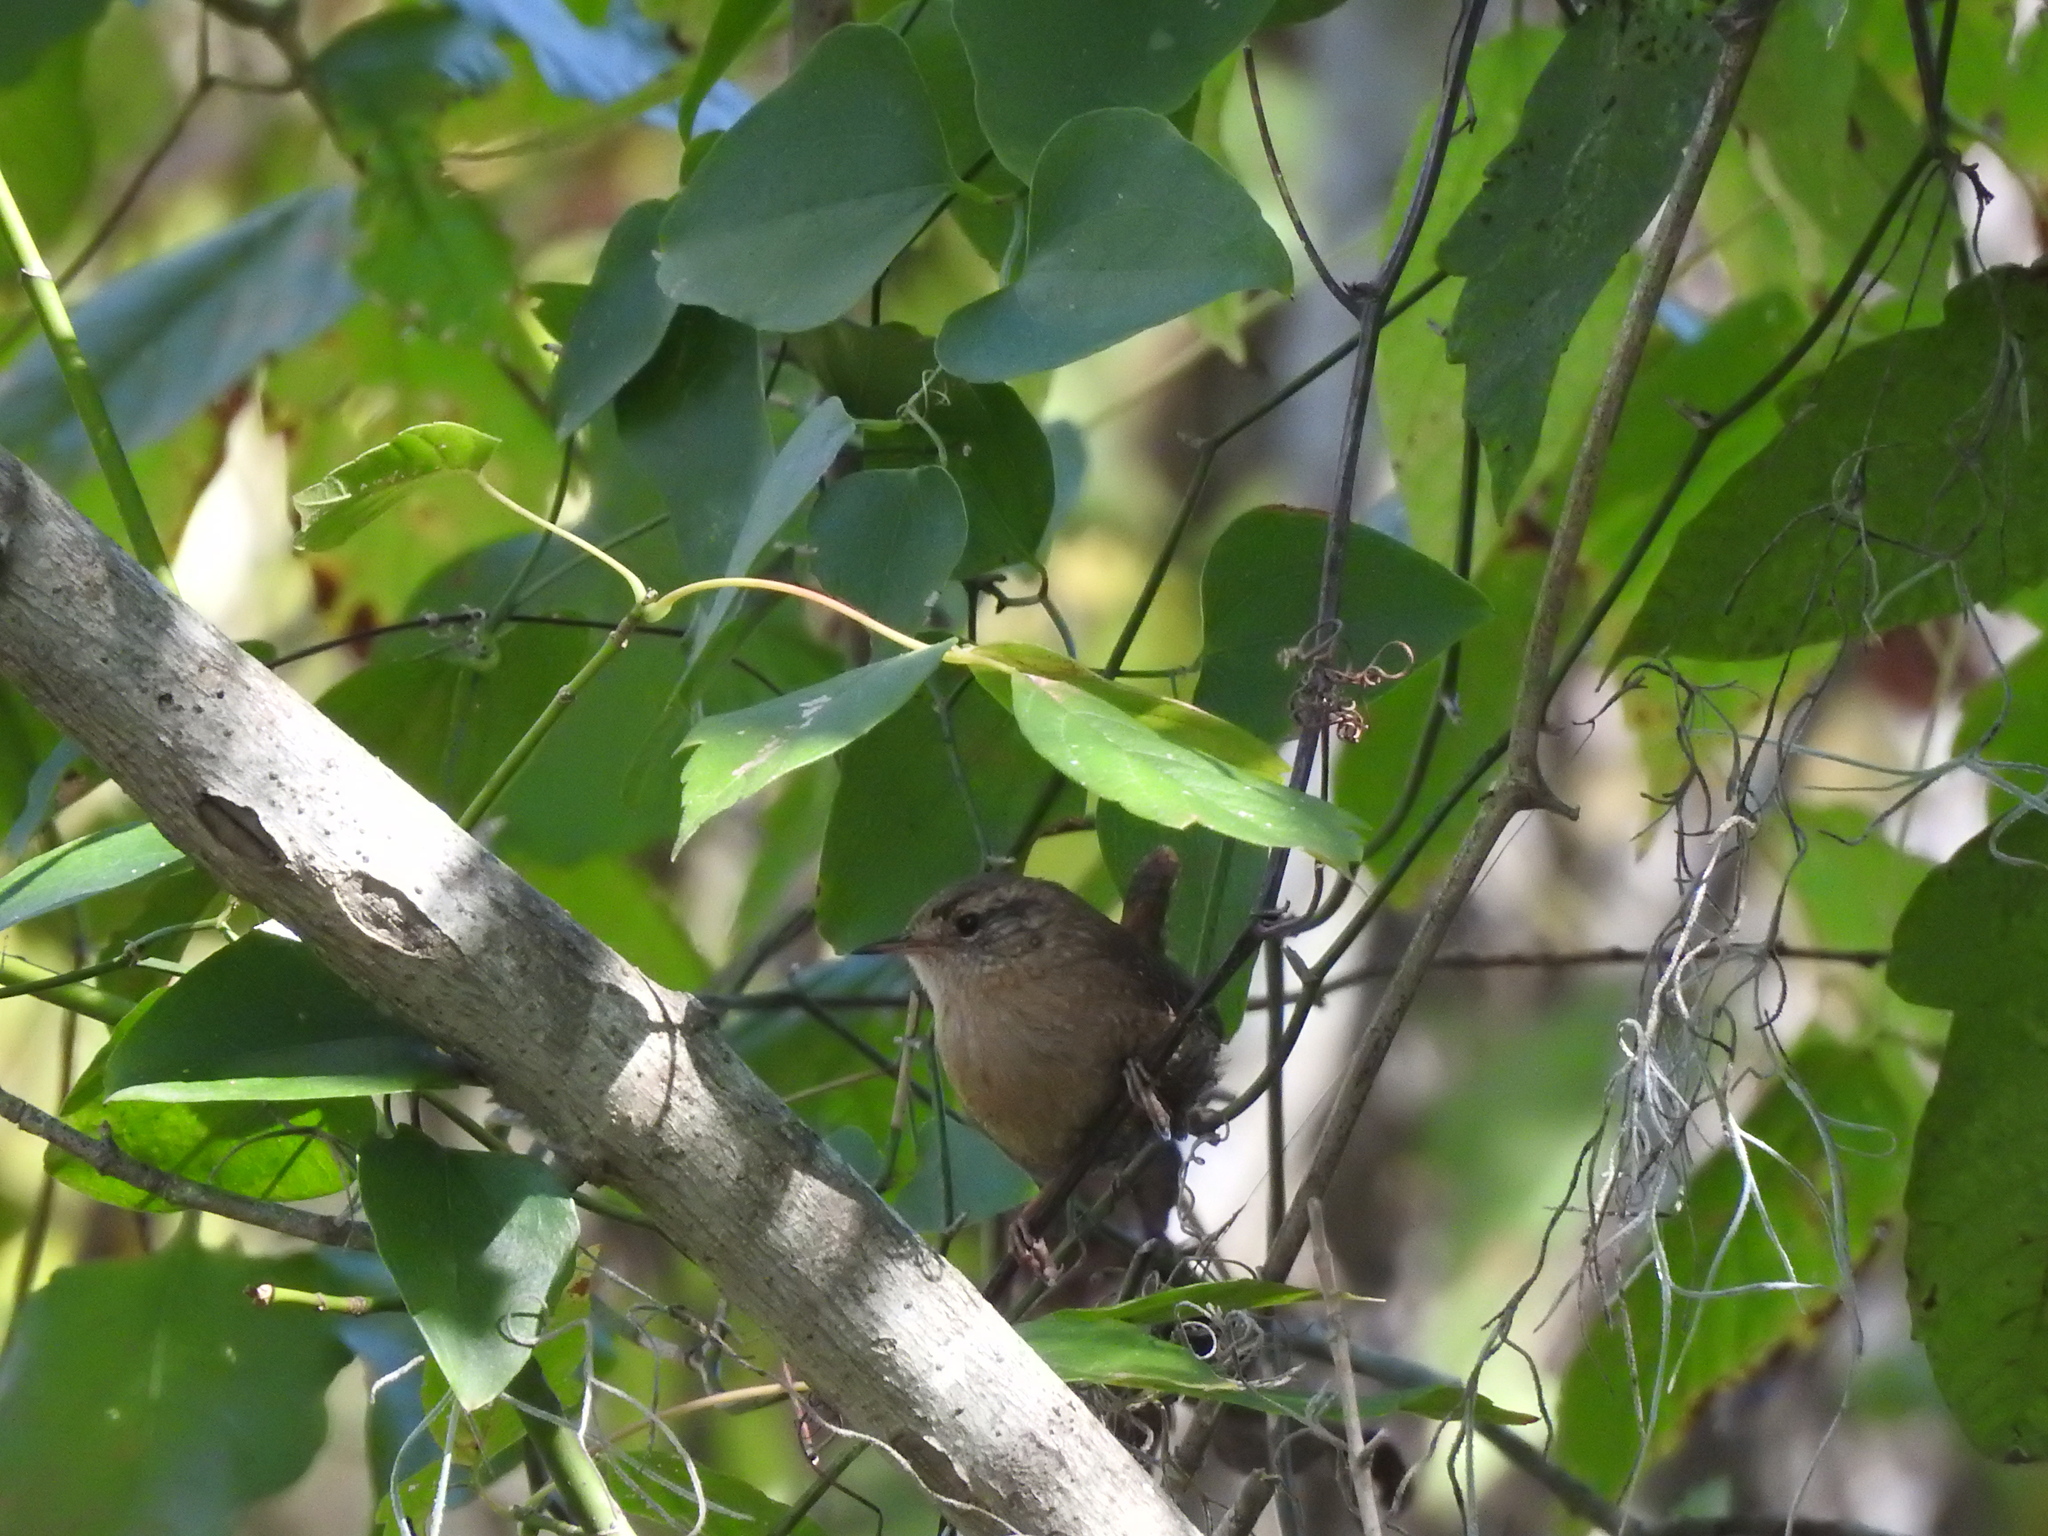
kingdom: Animalia
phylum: Chordata
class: Aves
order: Passeriformes
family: Troglodytidae
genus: Troglodytes
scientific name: Troglodytes hiemalis
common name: Winter wren
